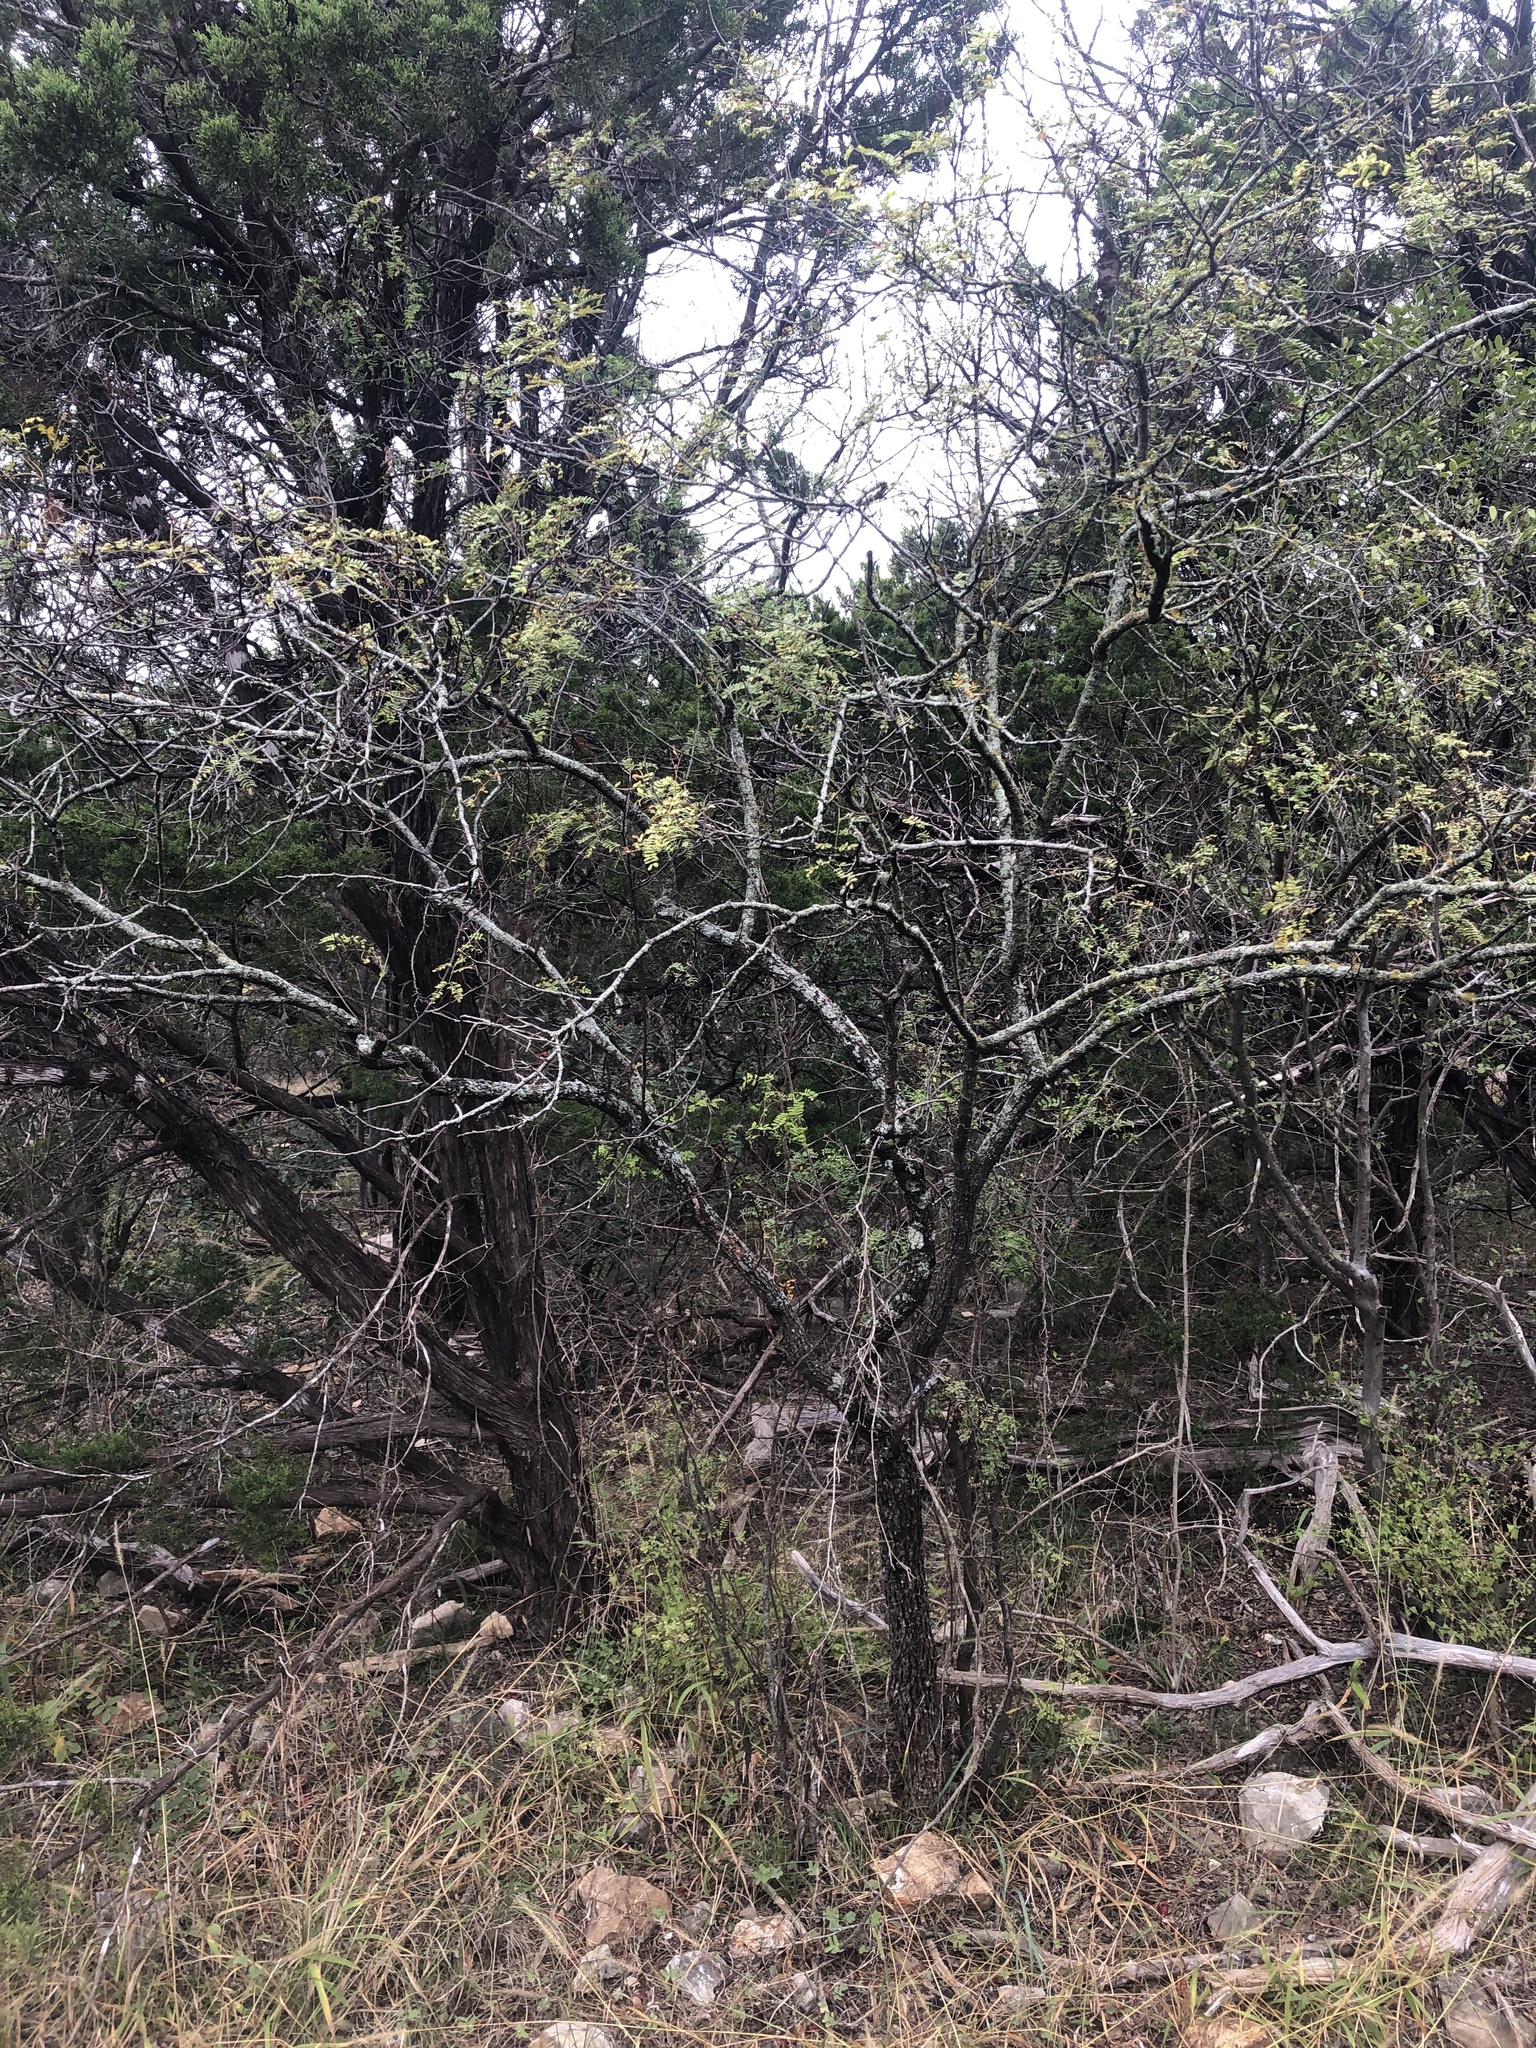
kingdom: Plantae
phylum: Tracheophyta
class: Magnoliopsida
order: Fabales
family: Fabaceae
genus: Senegalia
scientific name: Senegalia roemeriana
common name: Roemer's acacia
